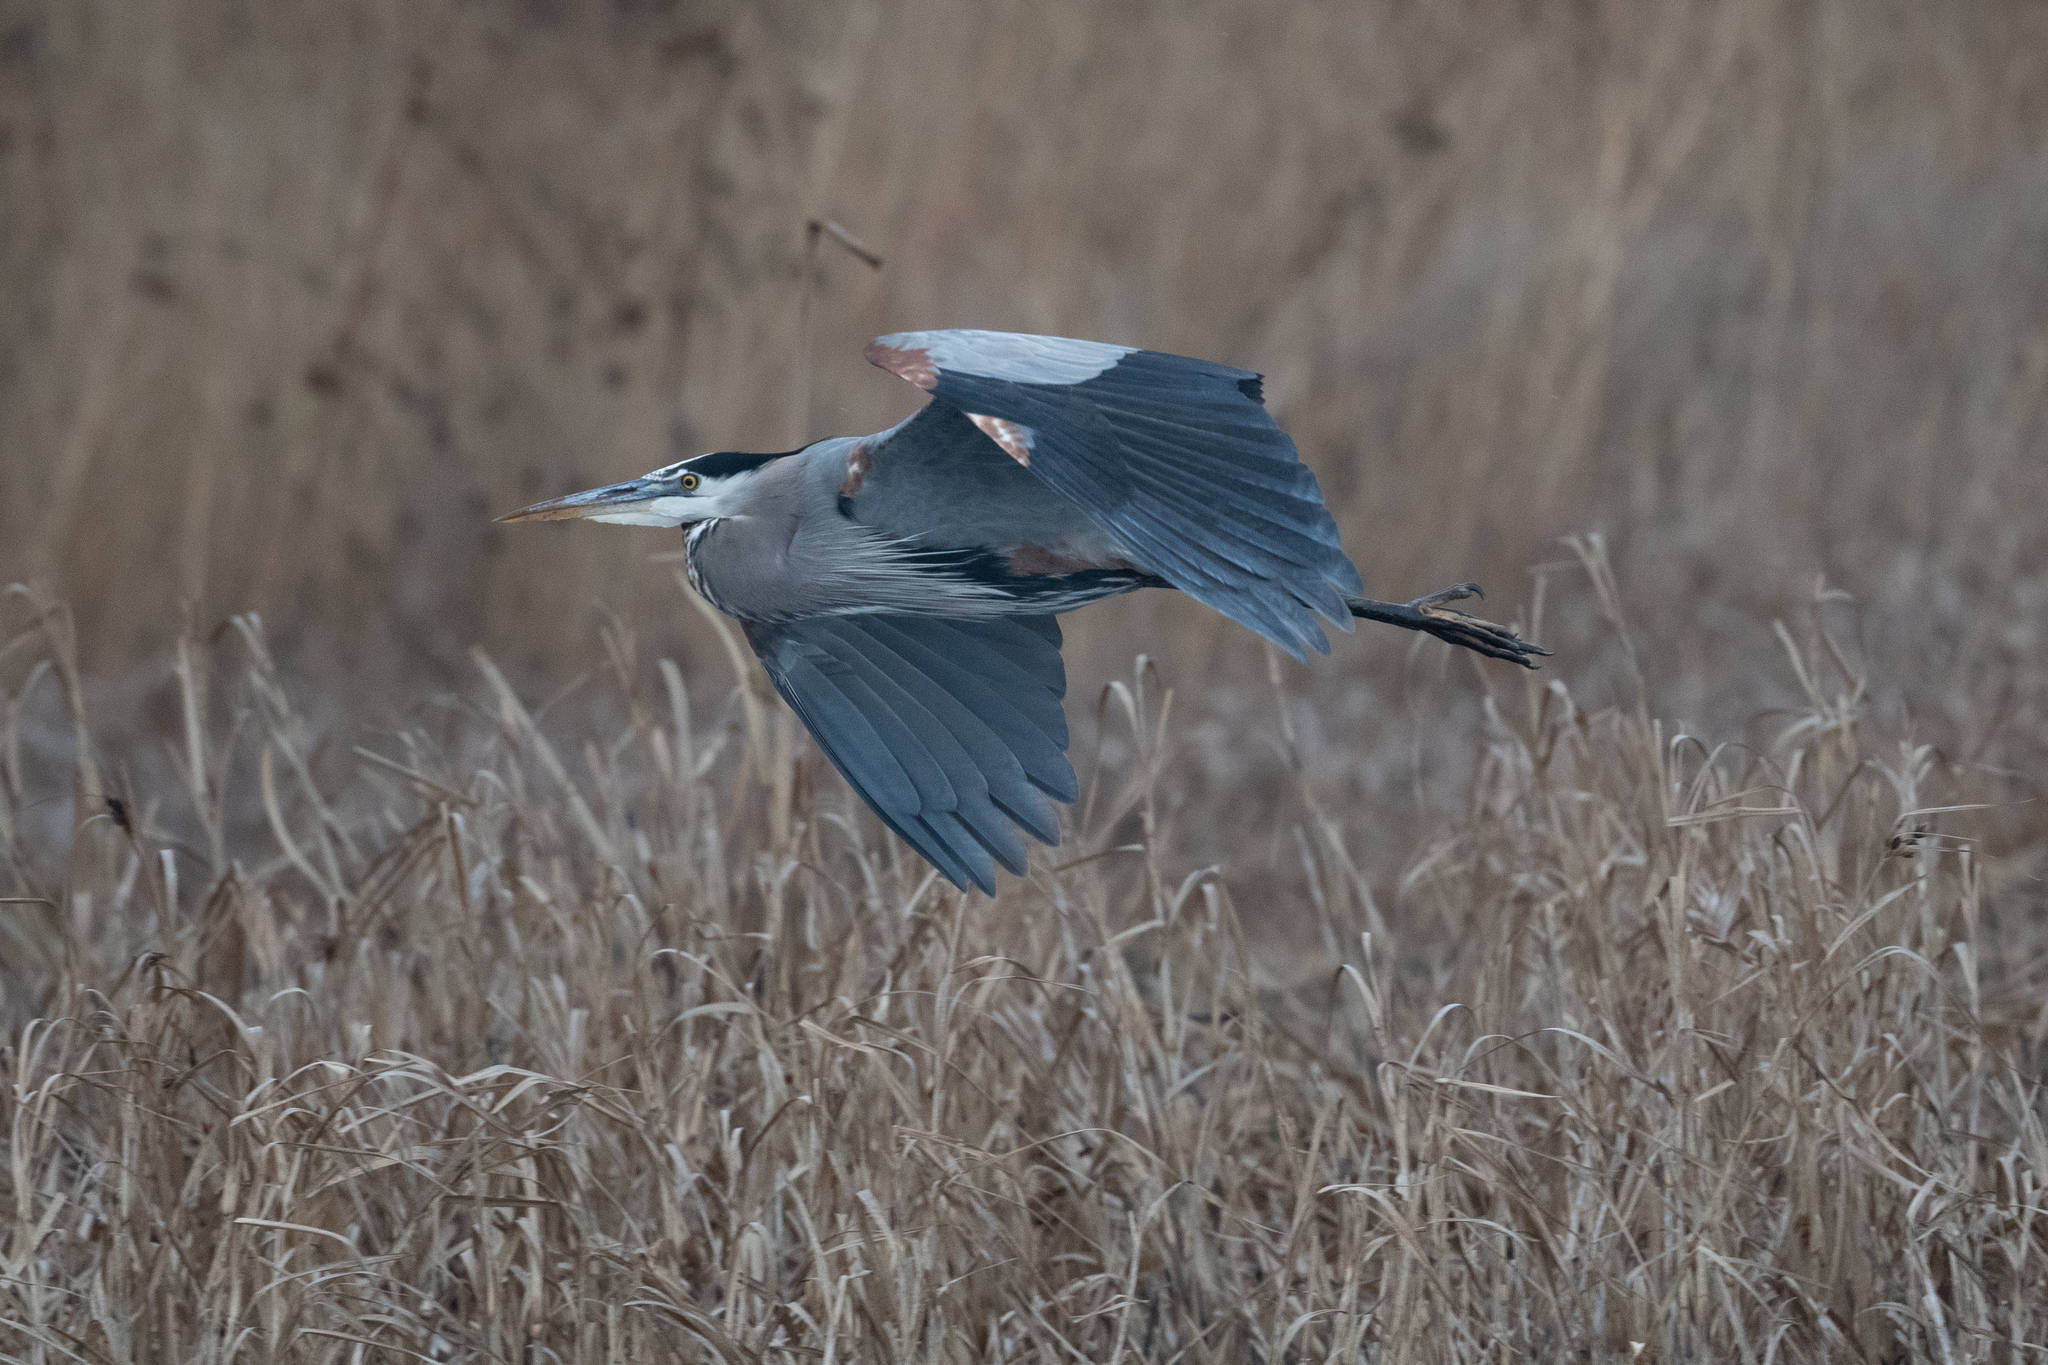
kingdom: Animalia
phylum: Chordata
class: Aves
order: Pelecaniformes
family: Ardeidae
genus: Ardea
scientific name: Ardea herodias
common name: Great blue heron
